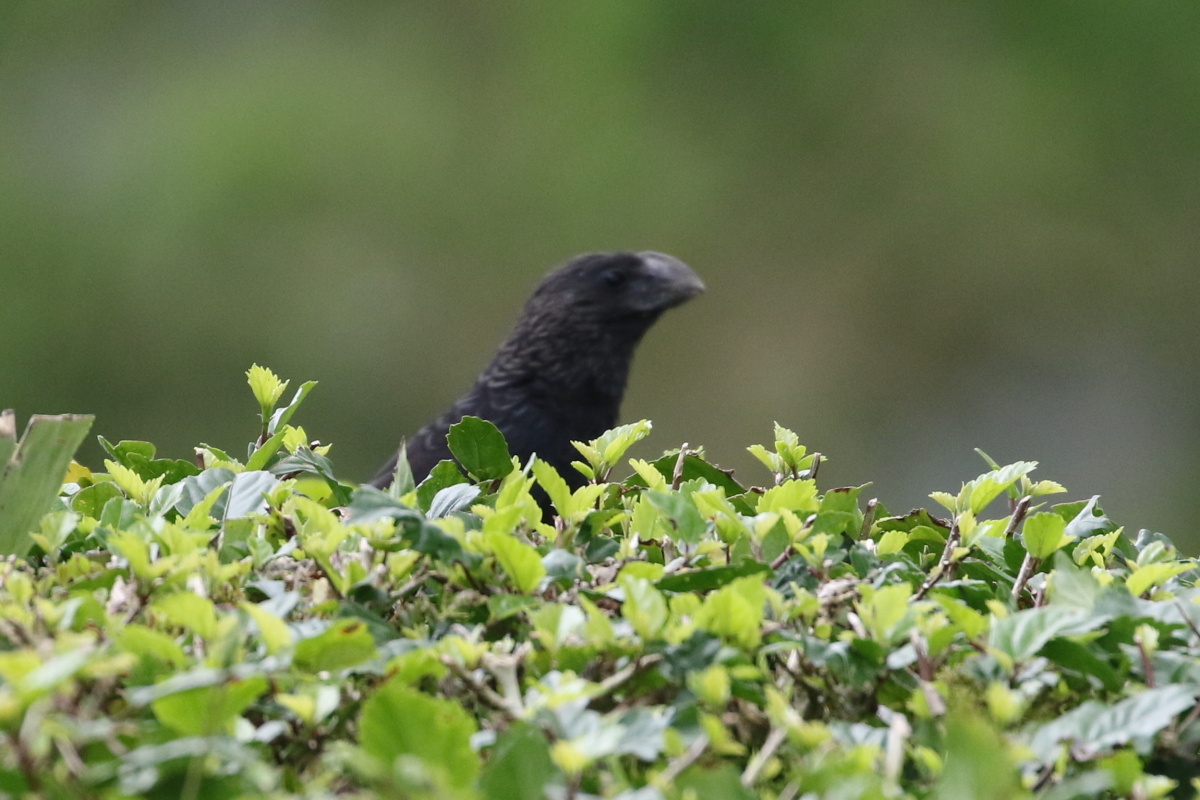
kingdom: Animalia
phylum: Chordata
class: Aves
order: Cuculiformes
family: Cuculidae
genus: Crotophaga
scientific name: Crotophaga ani
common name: Smooth-billed ani
